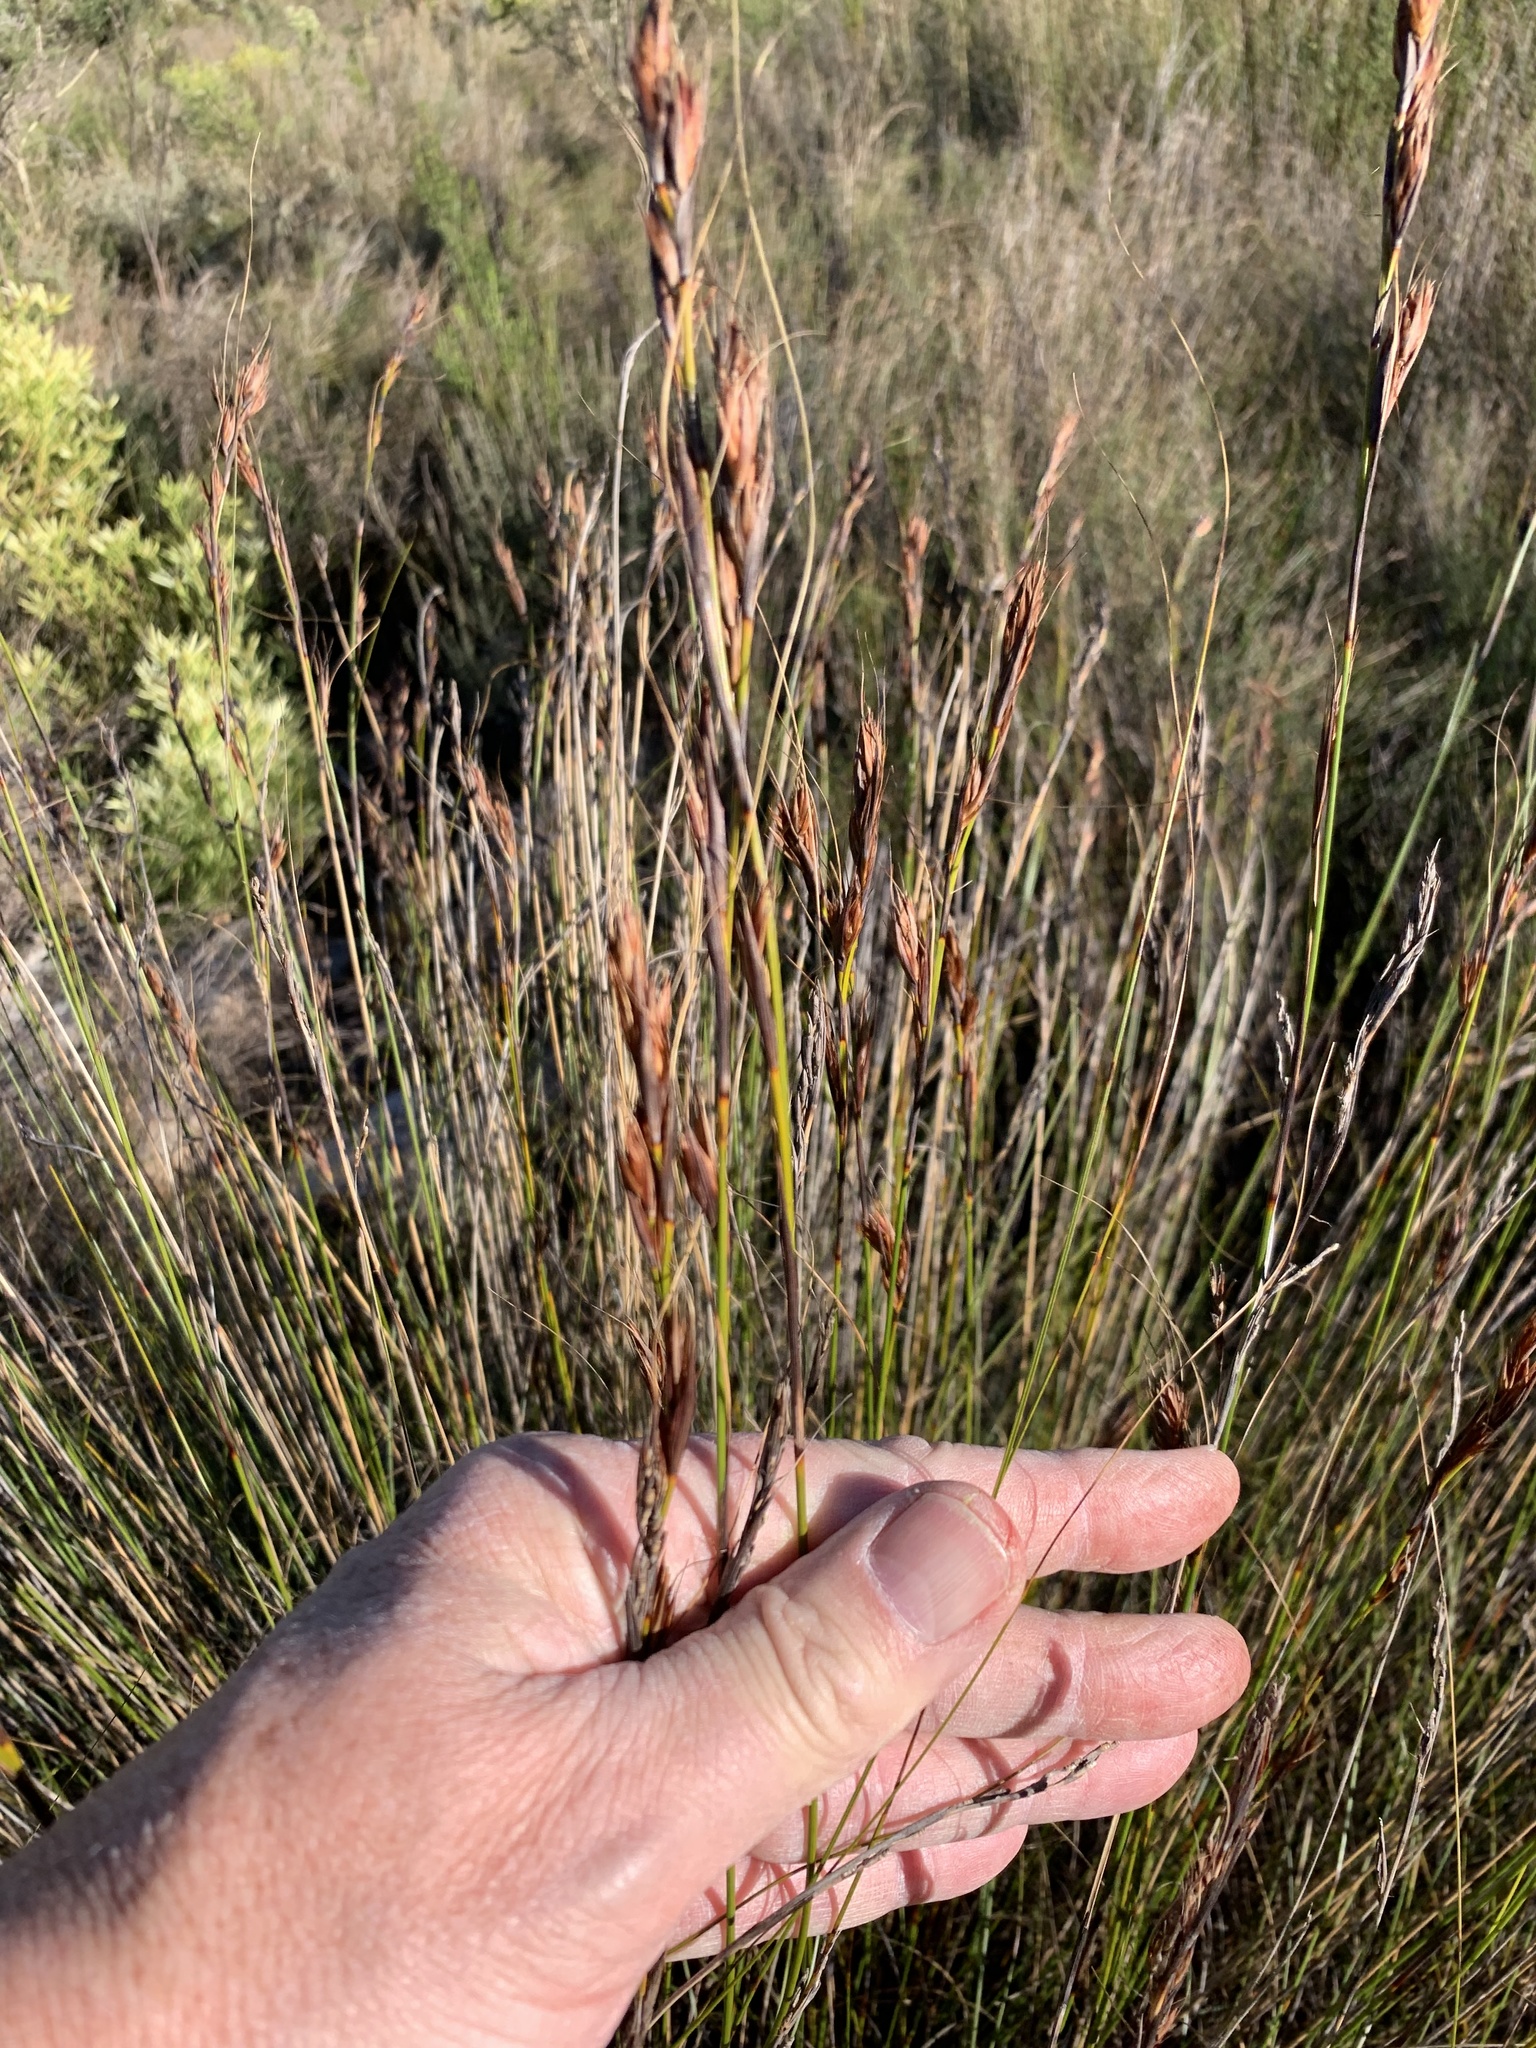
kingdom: Plantae
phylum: Tracheophyta
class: Liliopsida
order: Poales
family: Cyperaceae
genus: Tetraria
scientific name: Tetraria ustulata
